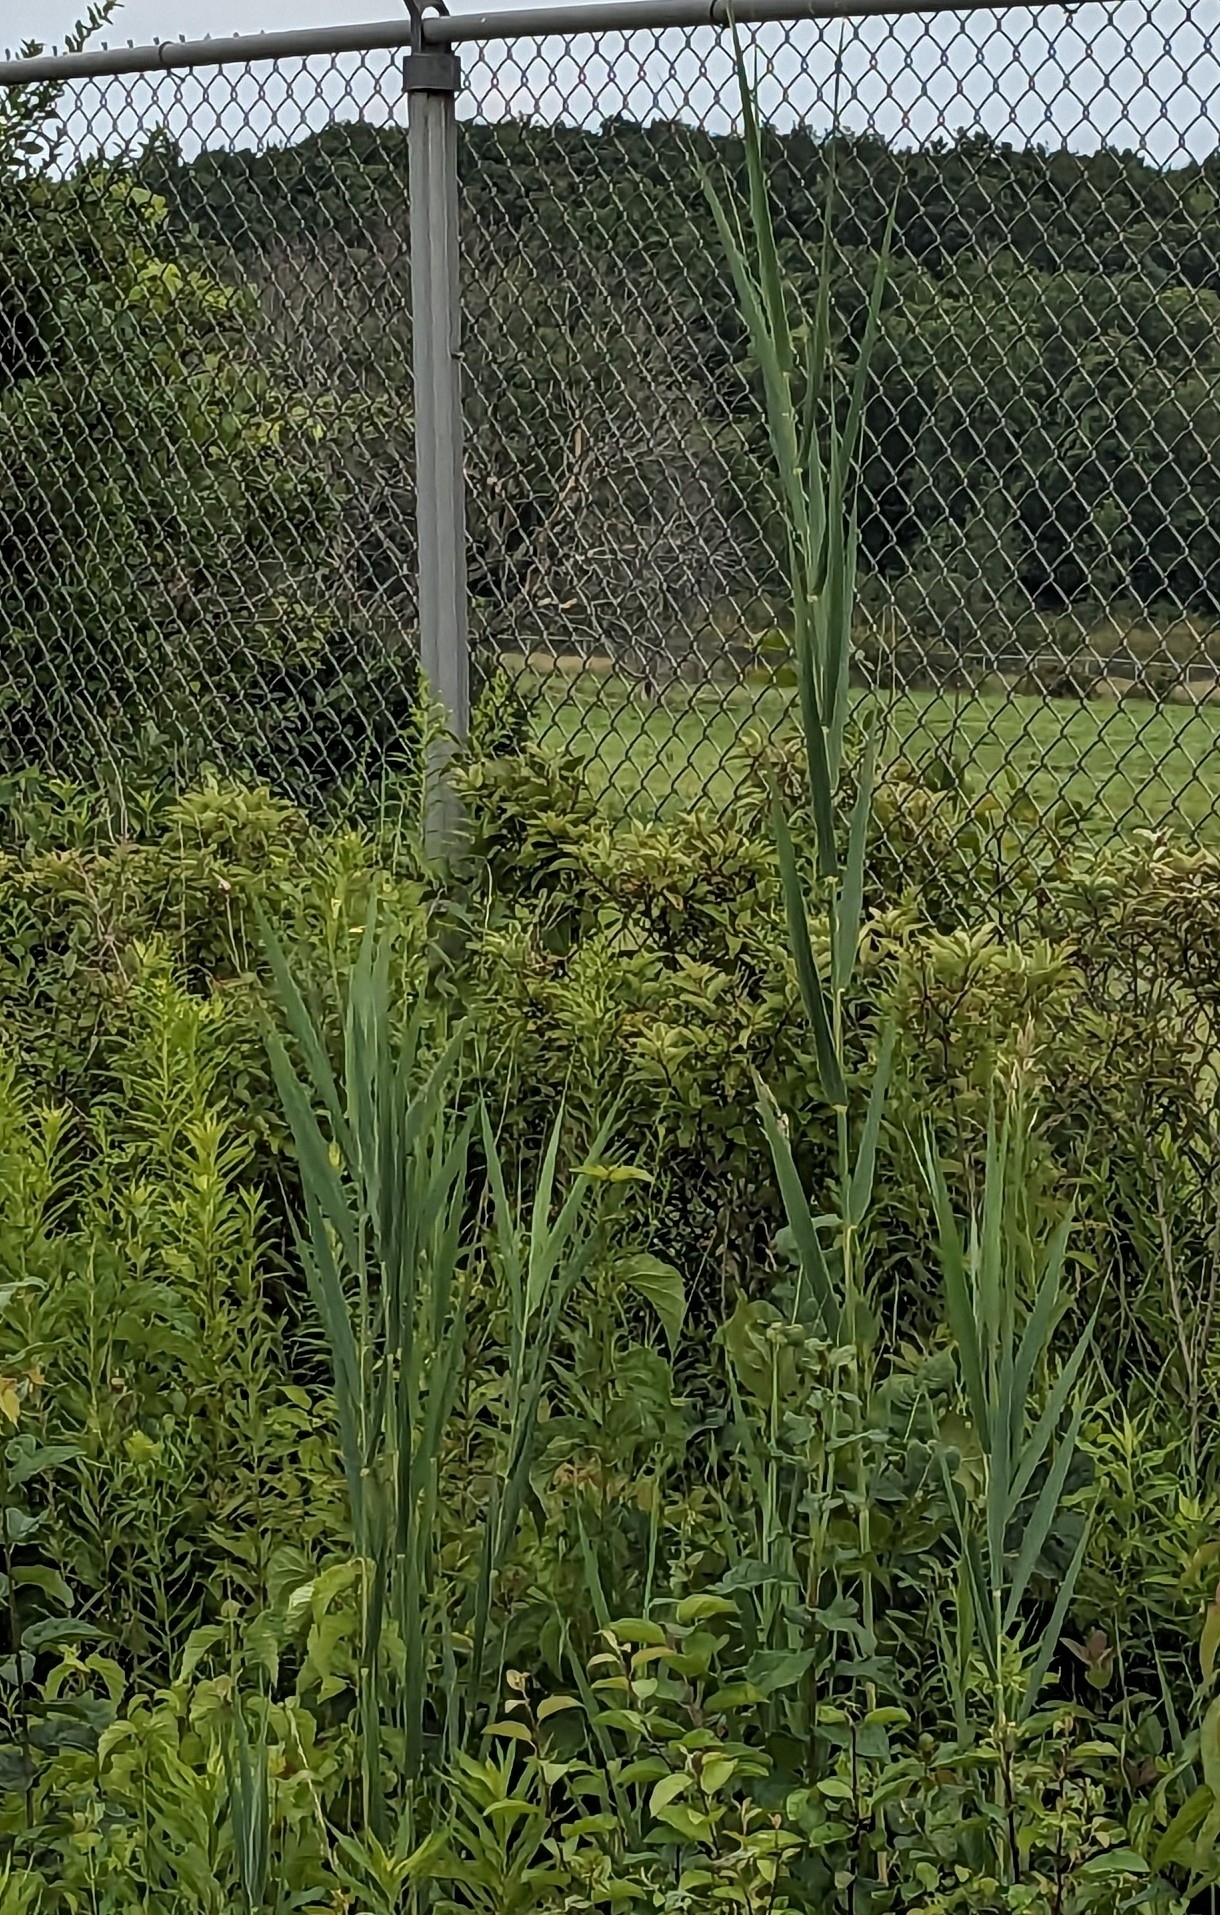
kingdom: Plantae
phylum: Tracheophyta
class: Liliopsida
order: Poales
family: Poaceae
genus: Phragmites
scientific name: Phragmites australis
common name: Common reed
